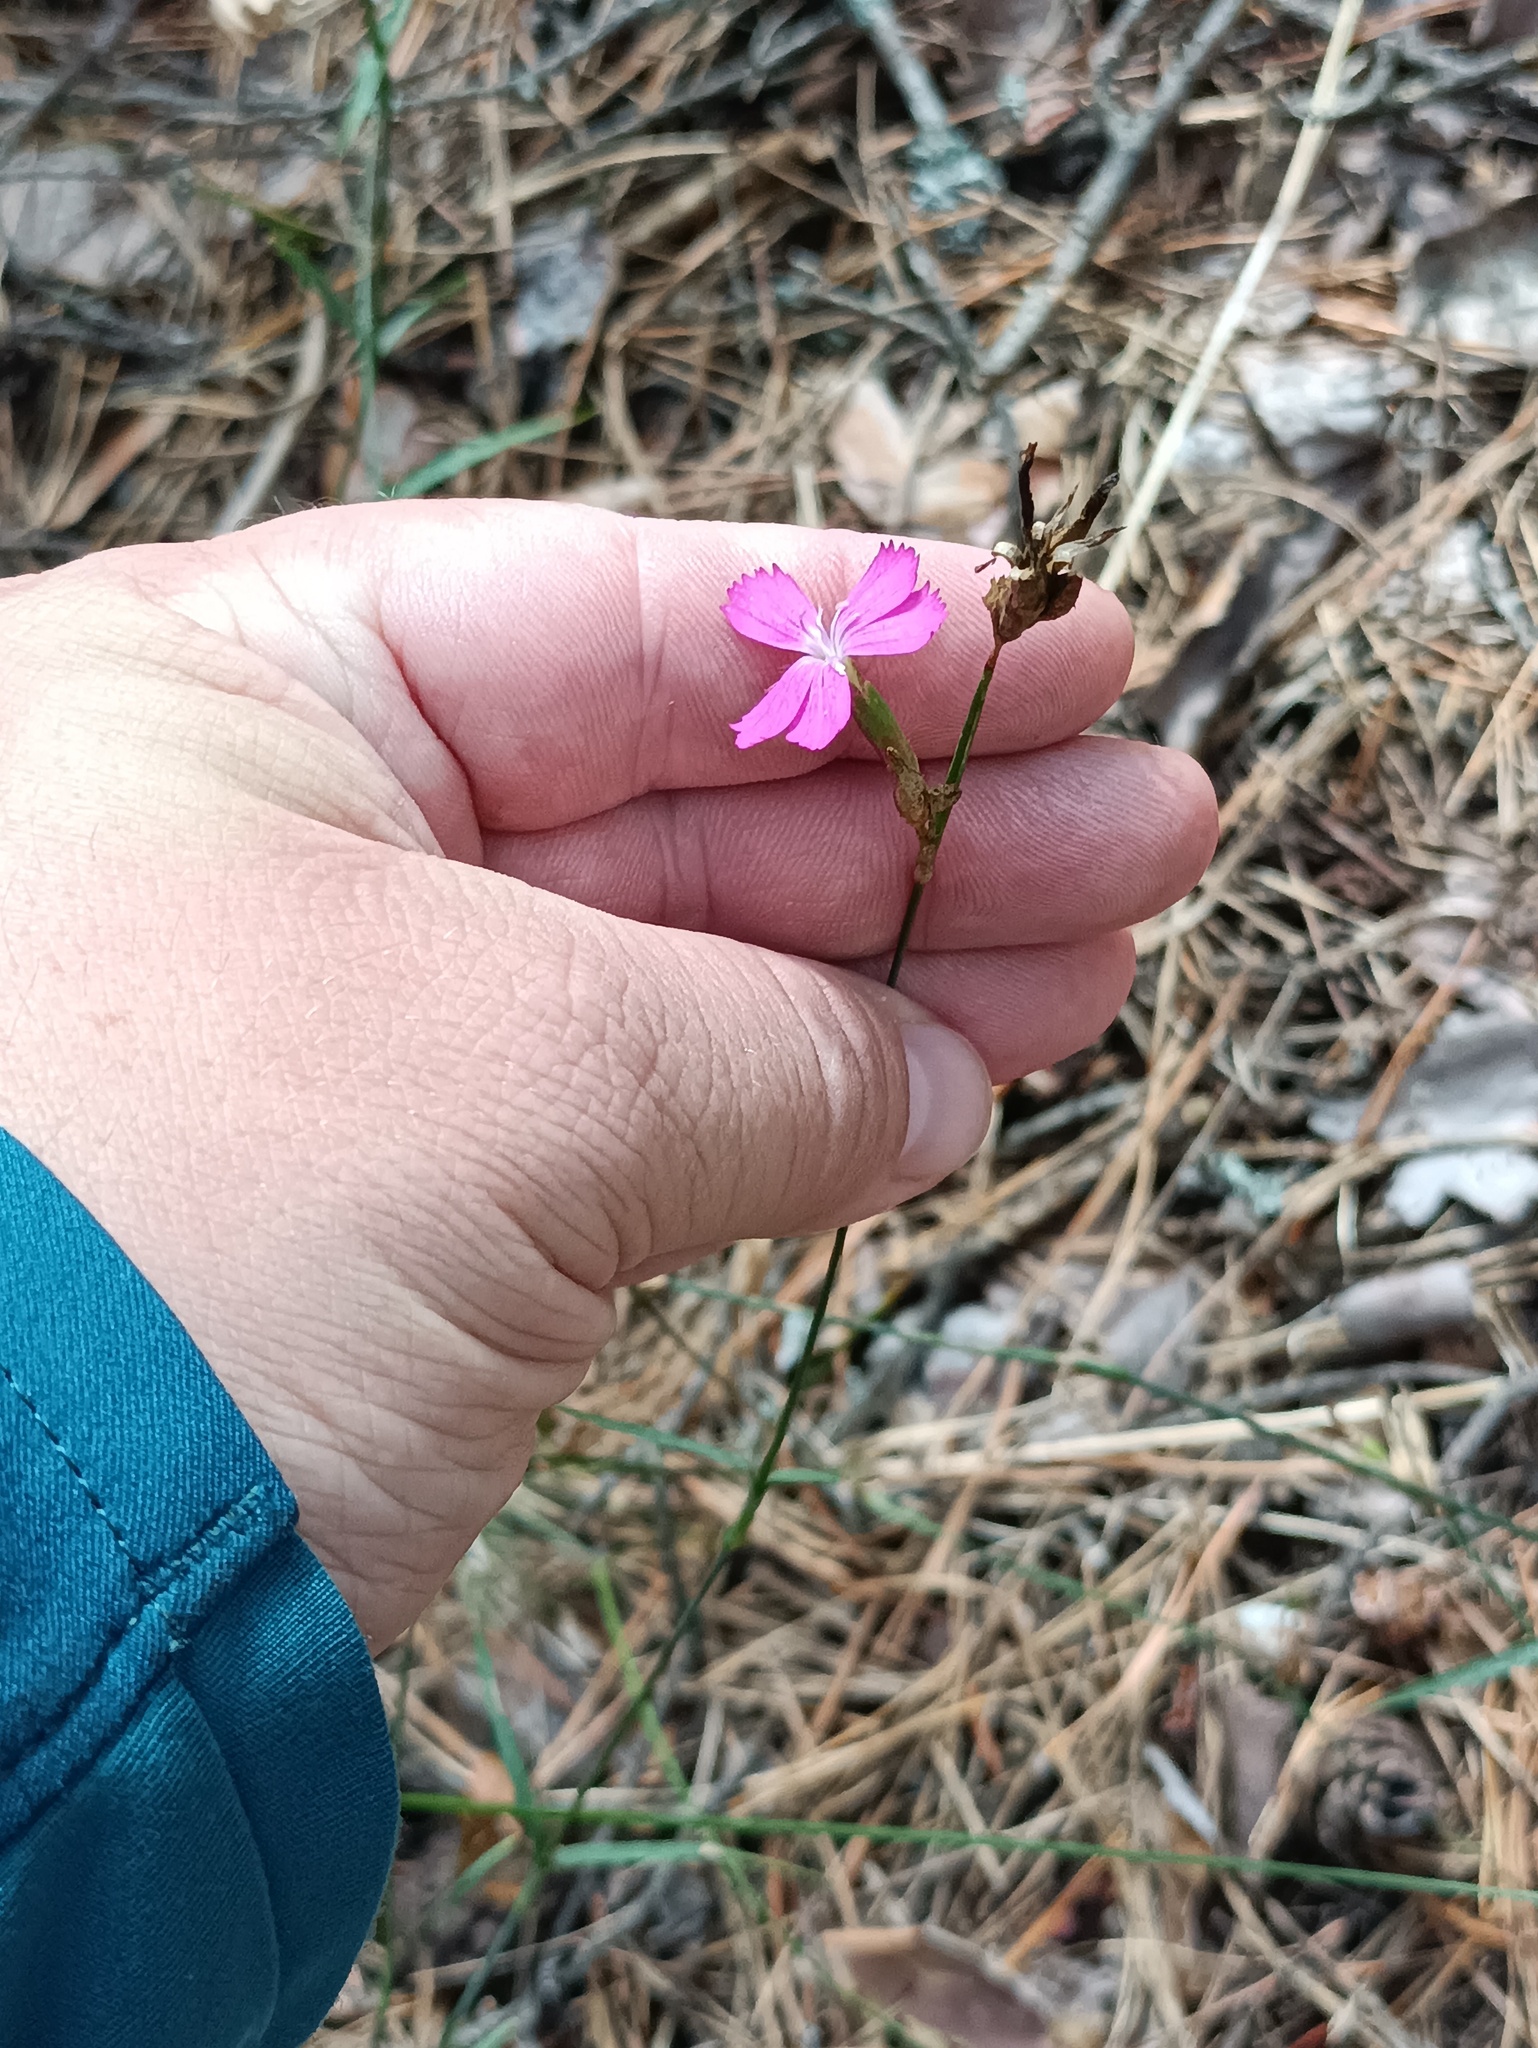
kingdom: Plantae
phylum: Tracheophyta
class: Magnoliopsida
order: Caryophyllales
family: Caryophyllaceae
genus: Dianthus
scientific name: Dianthus borbasii
